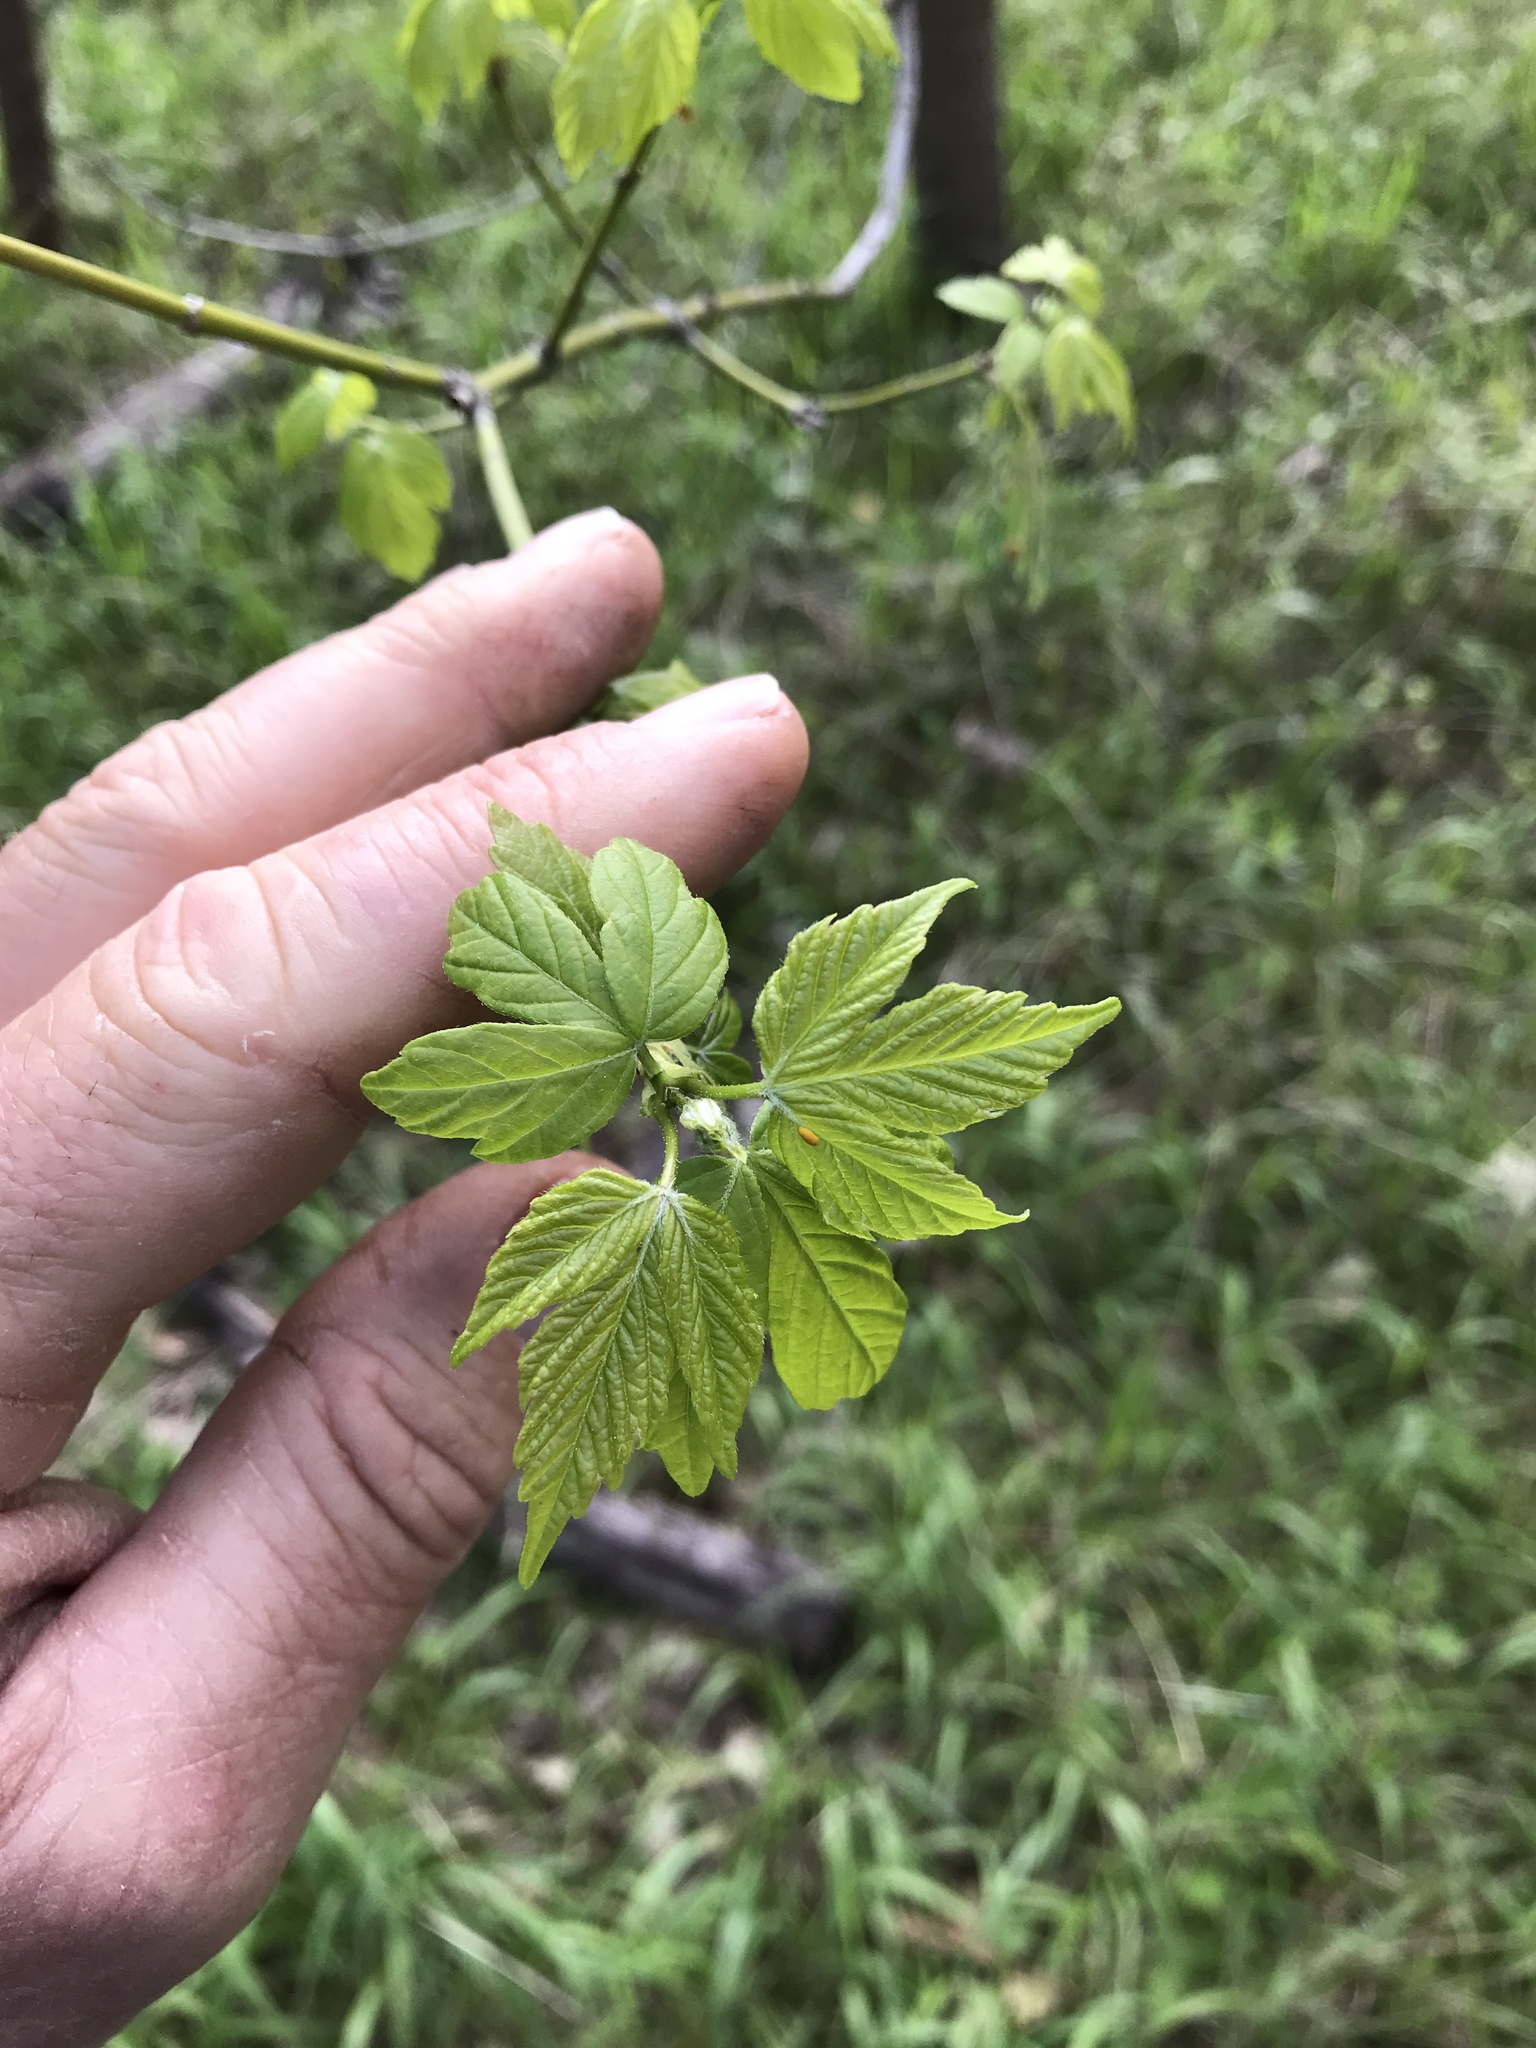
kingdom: Plantae
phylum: Tracheophyta
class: Magnoliopsida
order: Sapindales
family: Sapindaceae
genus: Acer
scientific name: Acer negundo
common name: Ashleaf maple
